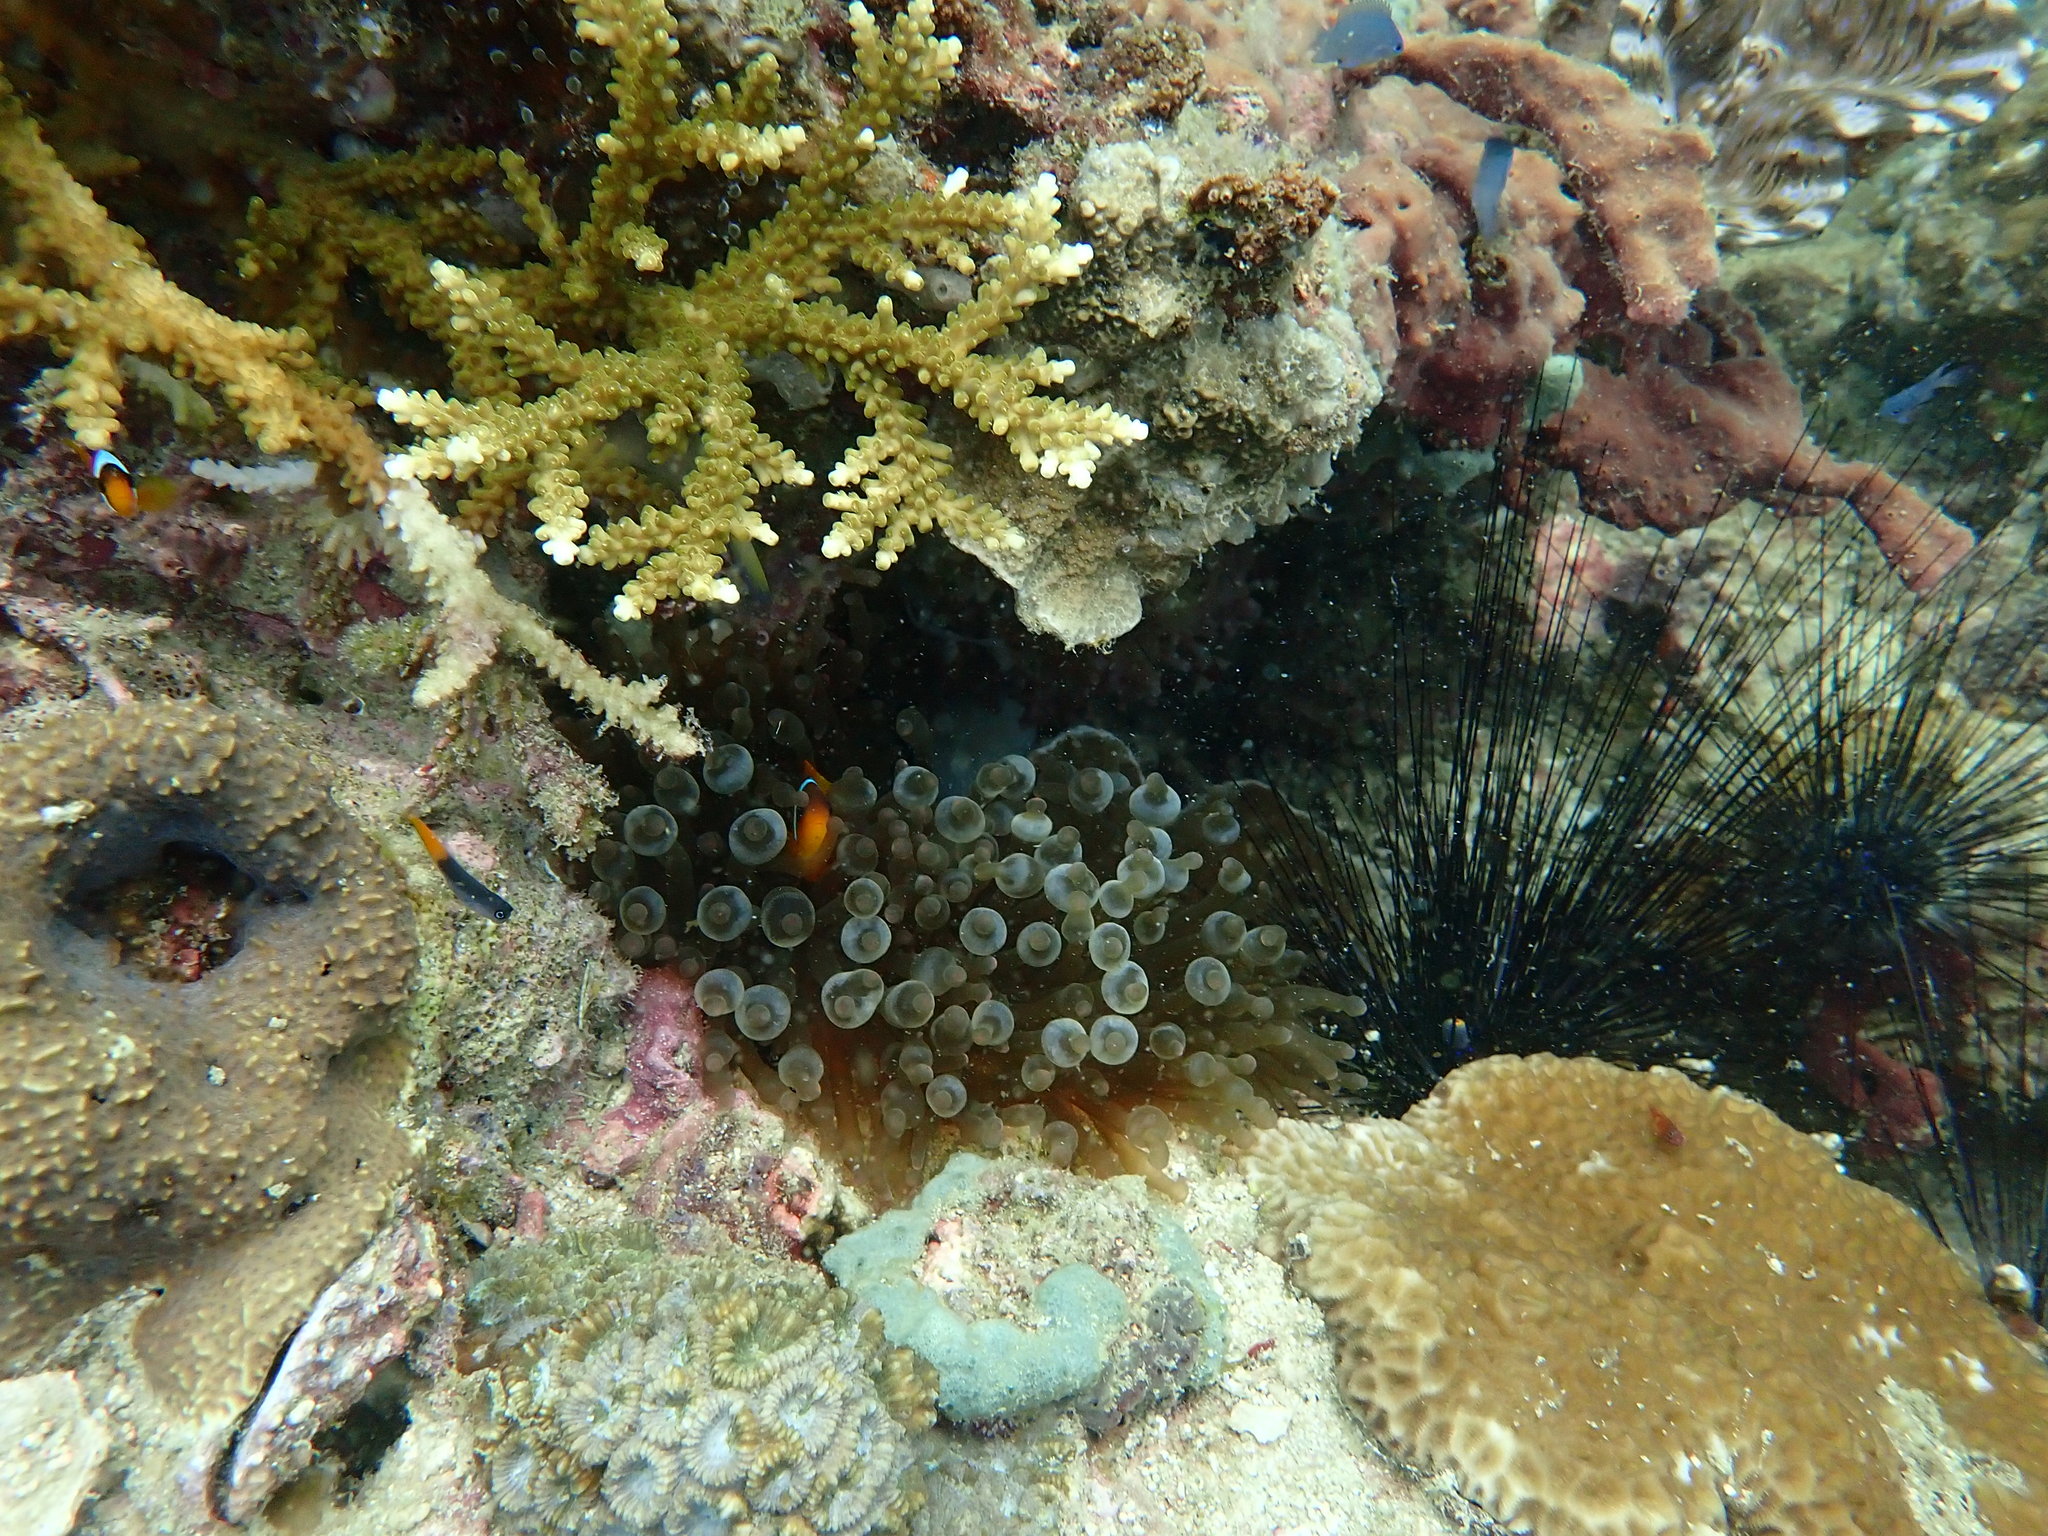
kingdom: Animalia
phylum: Cnidaria
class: Anthozoa
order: Actiniaria
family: Actiniidae
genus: Entacmaea
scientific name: Entacmaea quadricolor
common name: Bulb tentacle sea anemone
